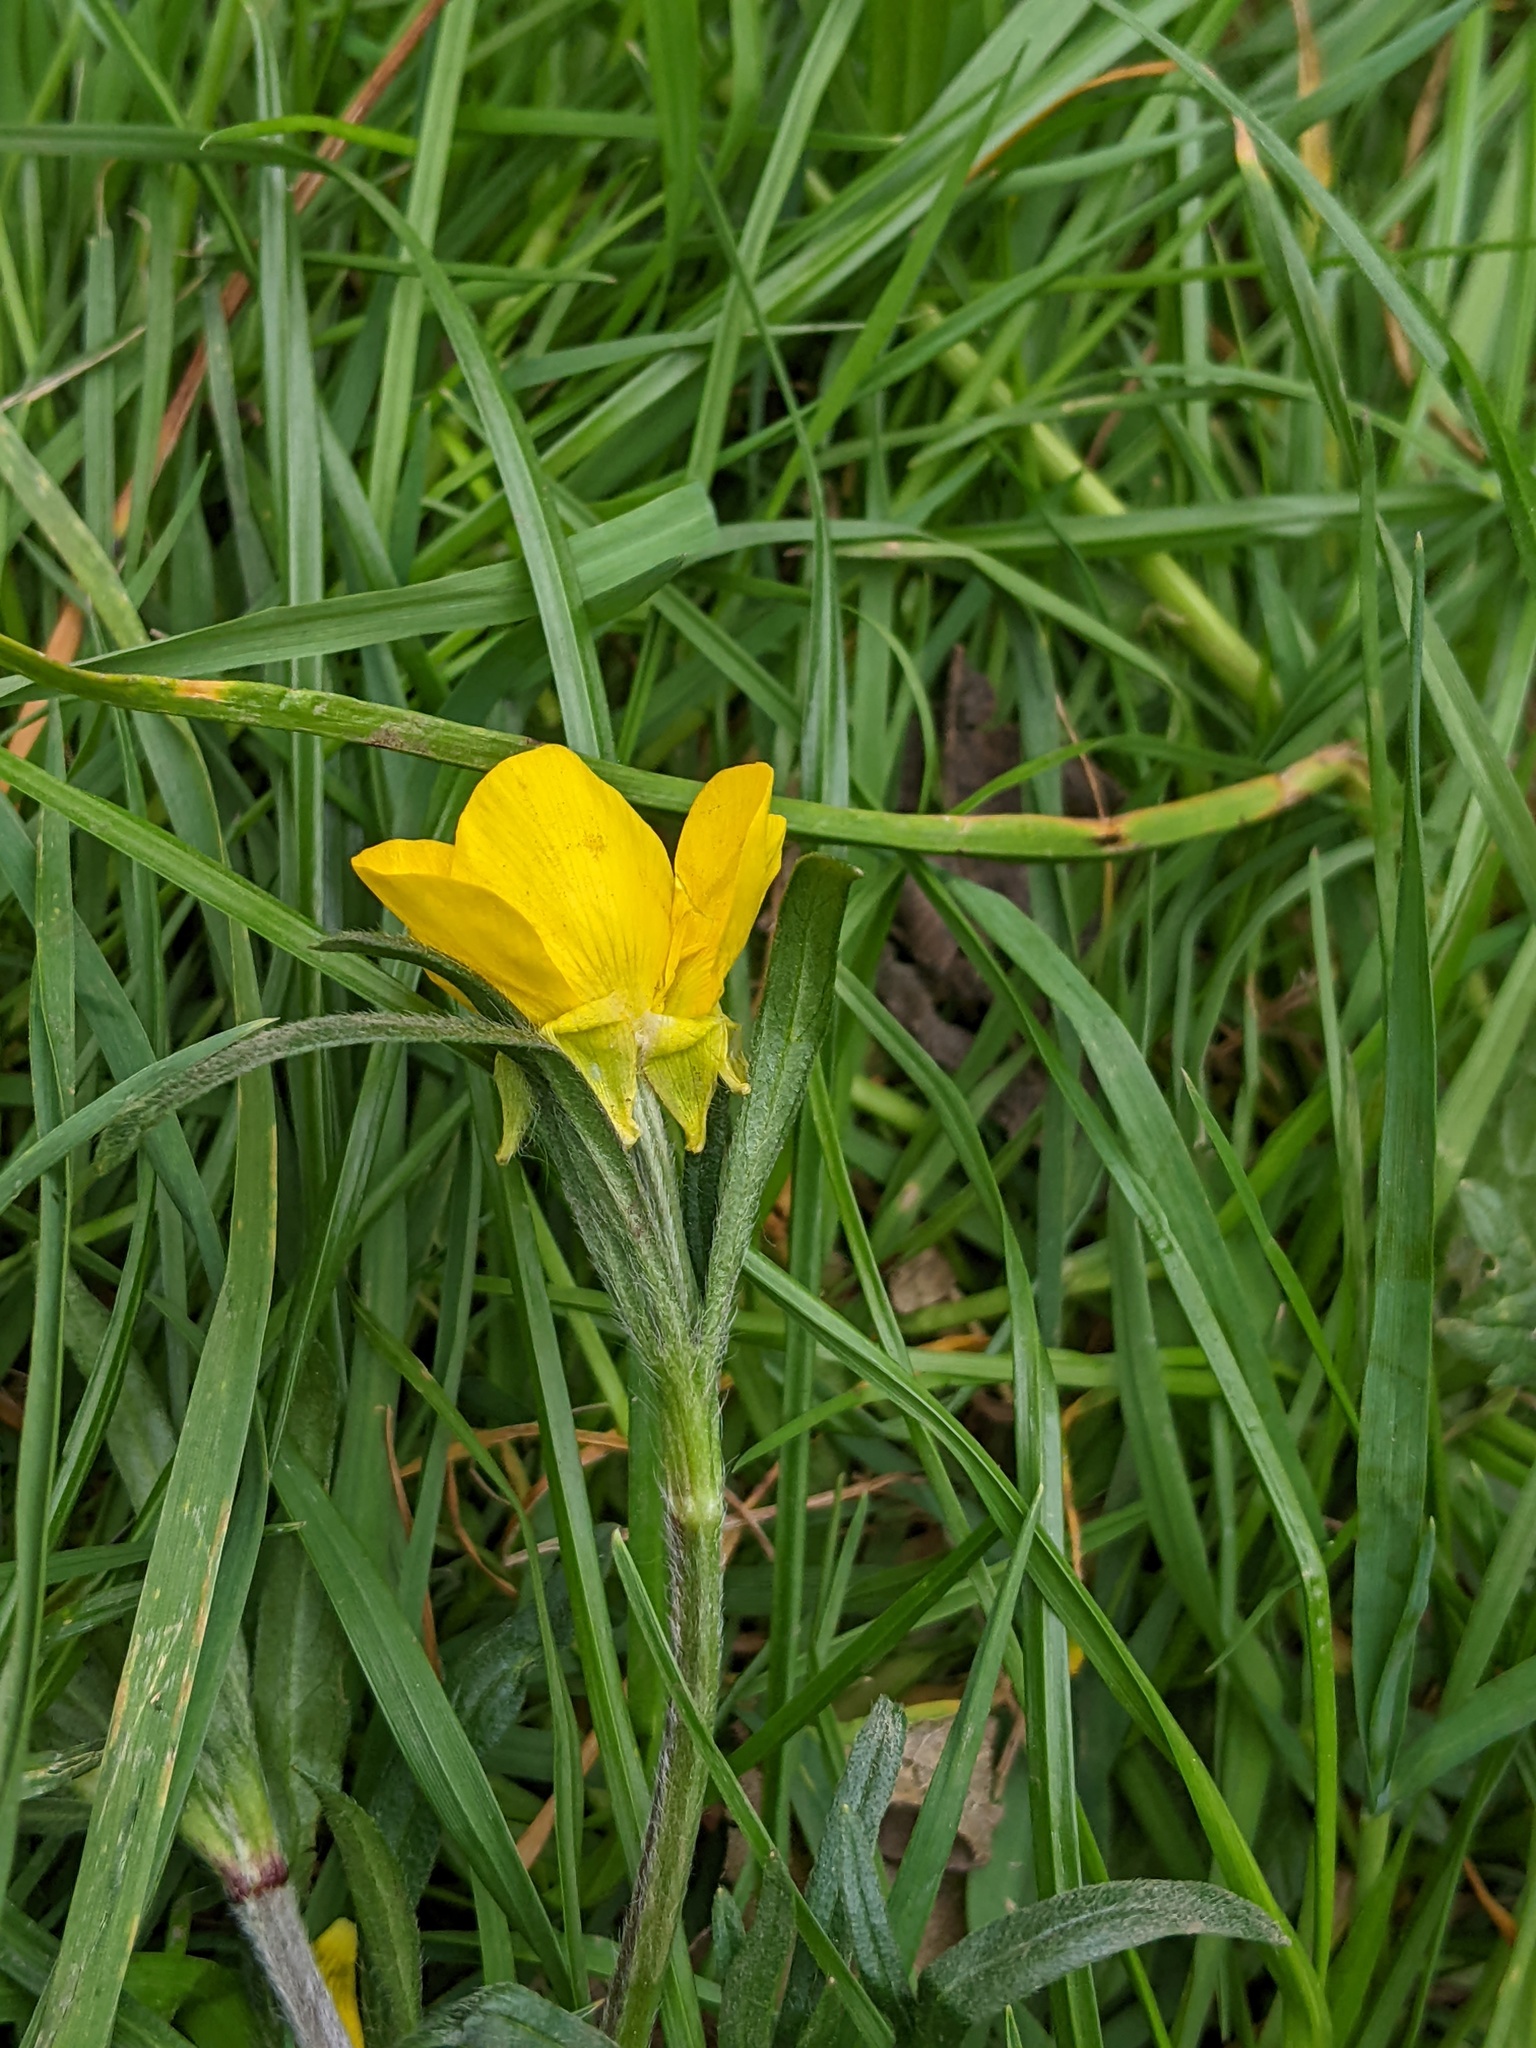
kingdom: Plantae
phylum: Tracheophyta
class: Magnoliopsida
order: Ranunculales
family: Ranunculaceae
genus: Ranunculus
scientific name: Ranunculus bulbosus
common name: Bulbous buttercup
